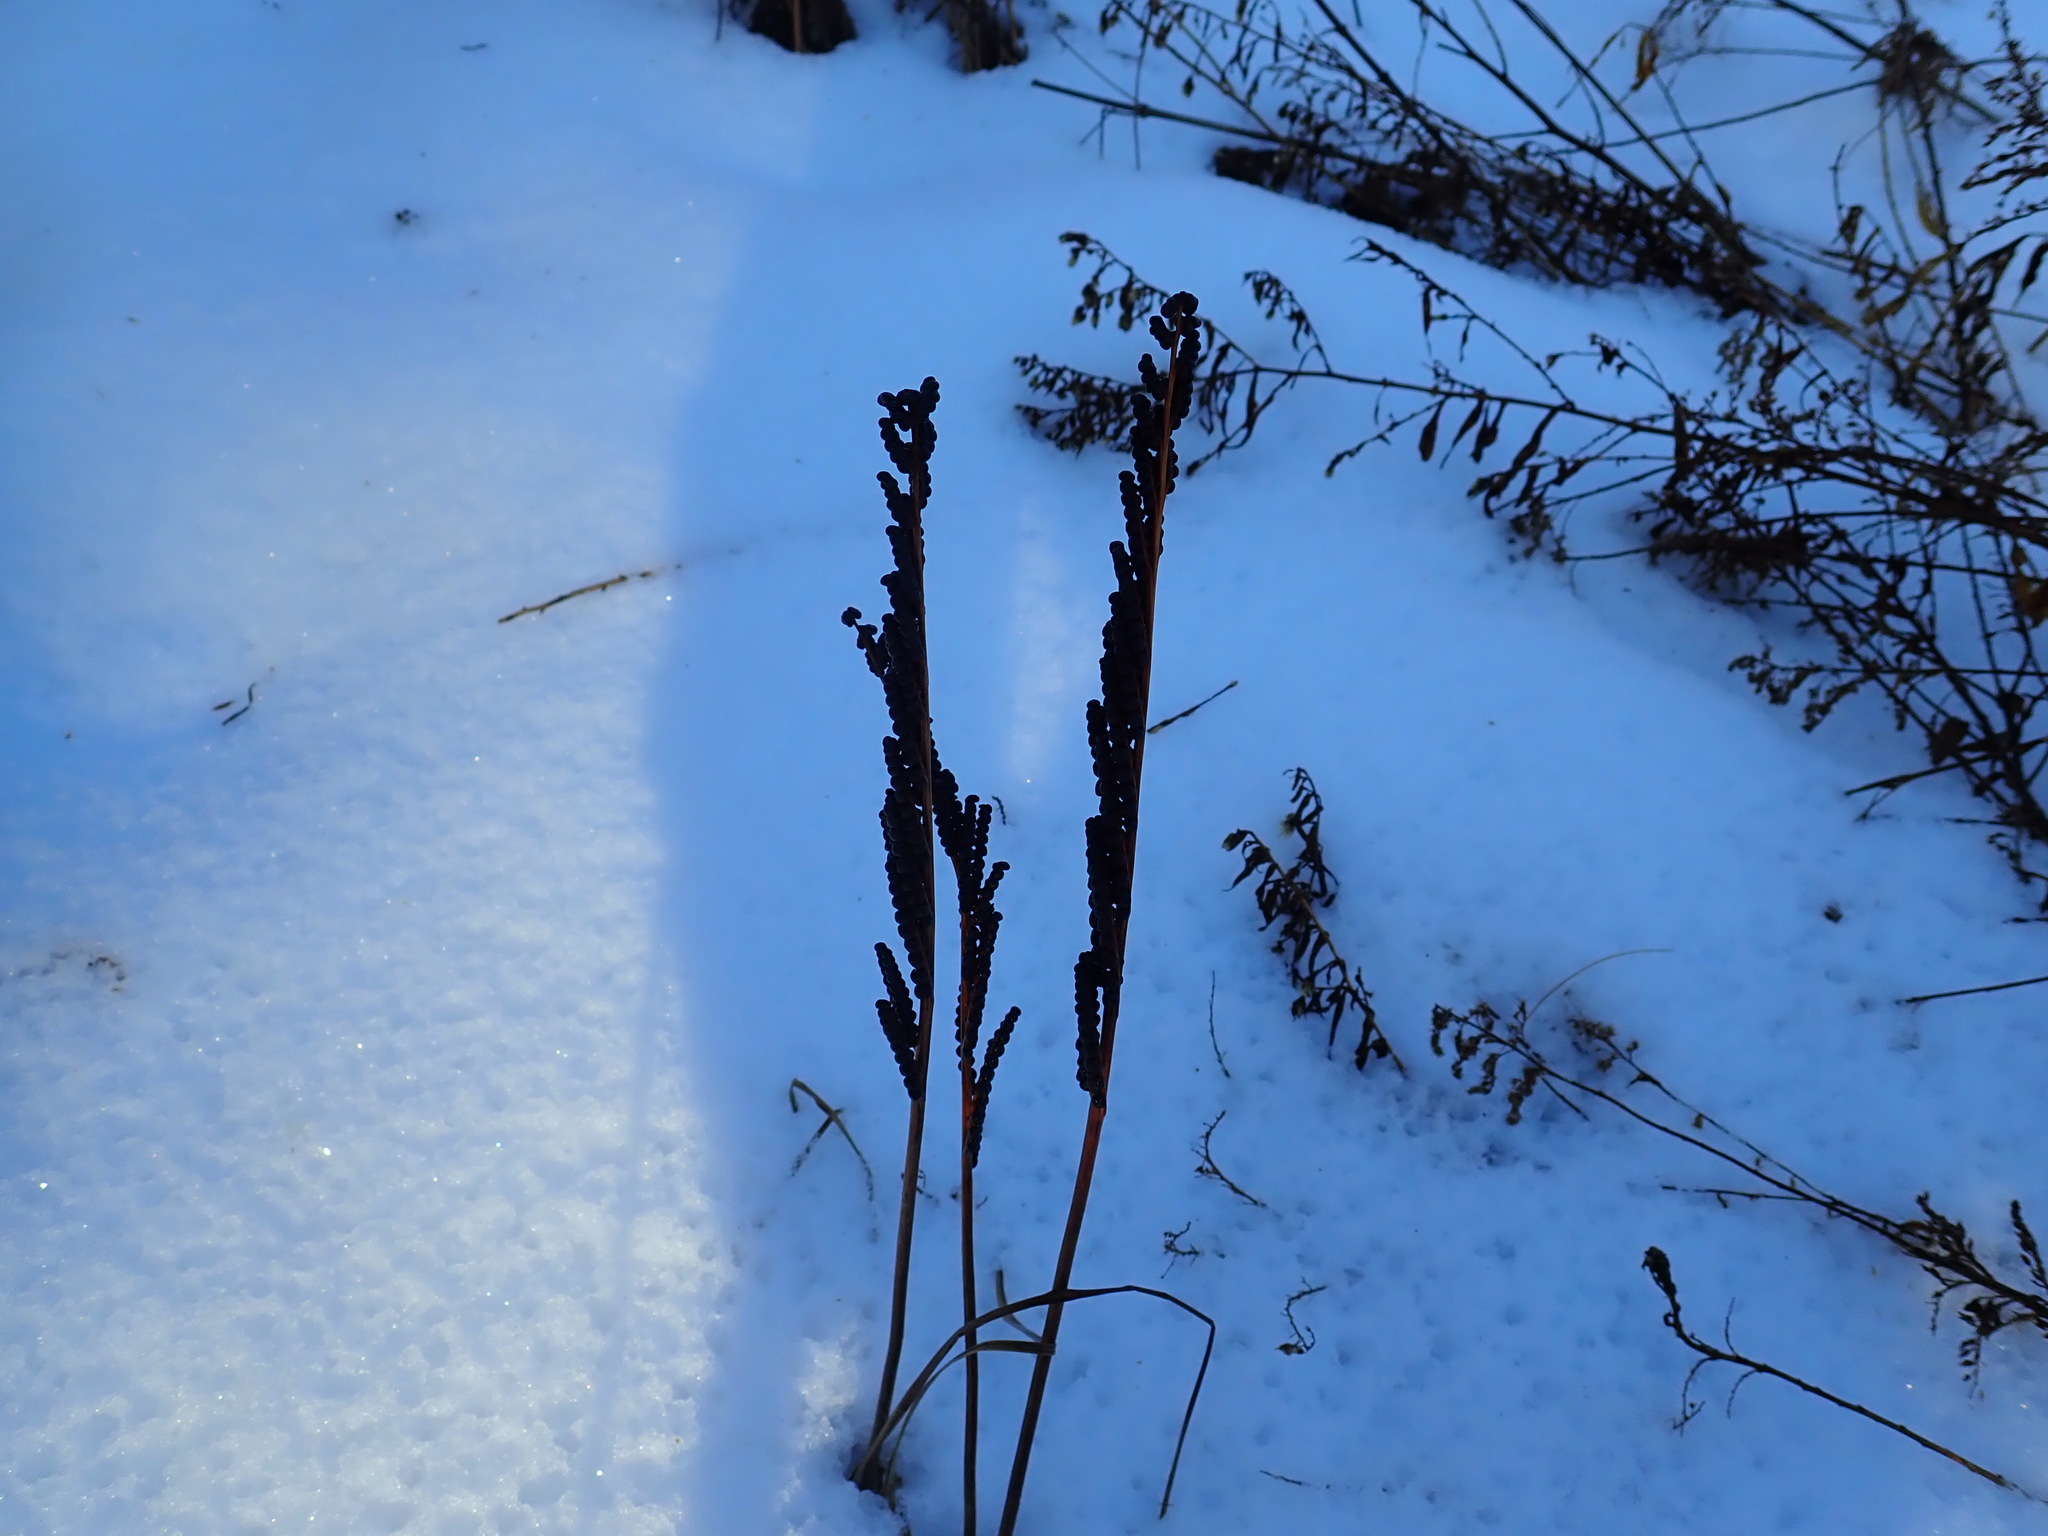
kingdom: Plantae
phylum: Tracheophyta
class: Polypodiopsida
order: Polypodiales
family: Onocleaceae
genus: Onoclea
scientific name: Onoclea sensibilis
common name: Sensitive fern
